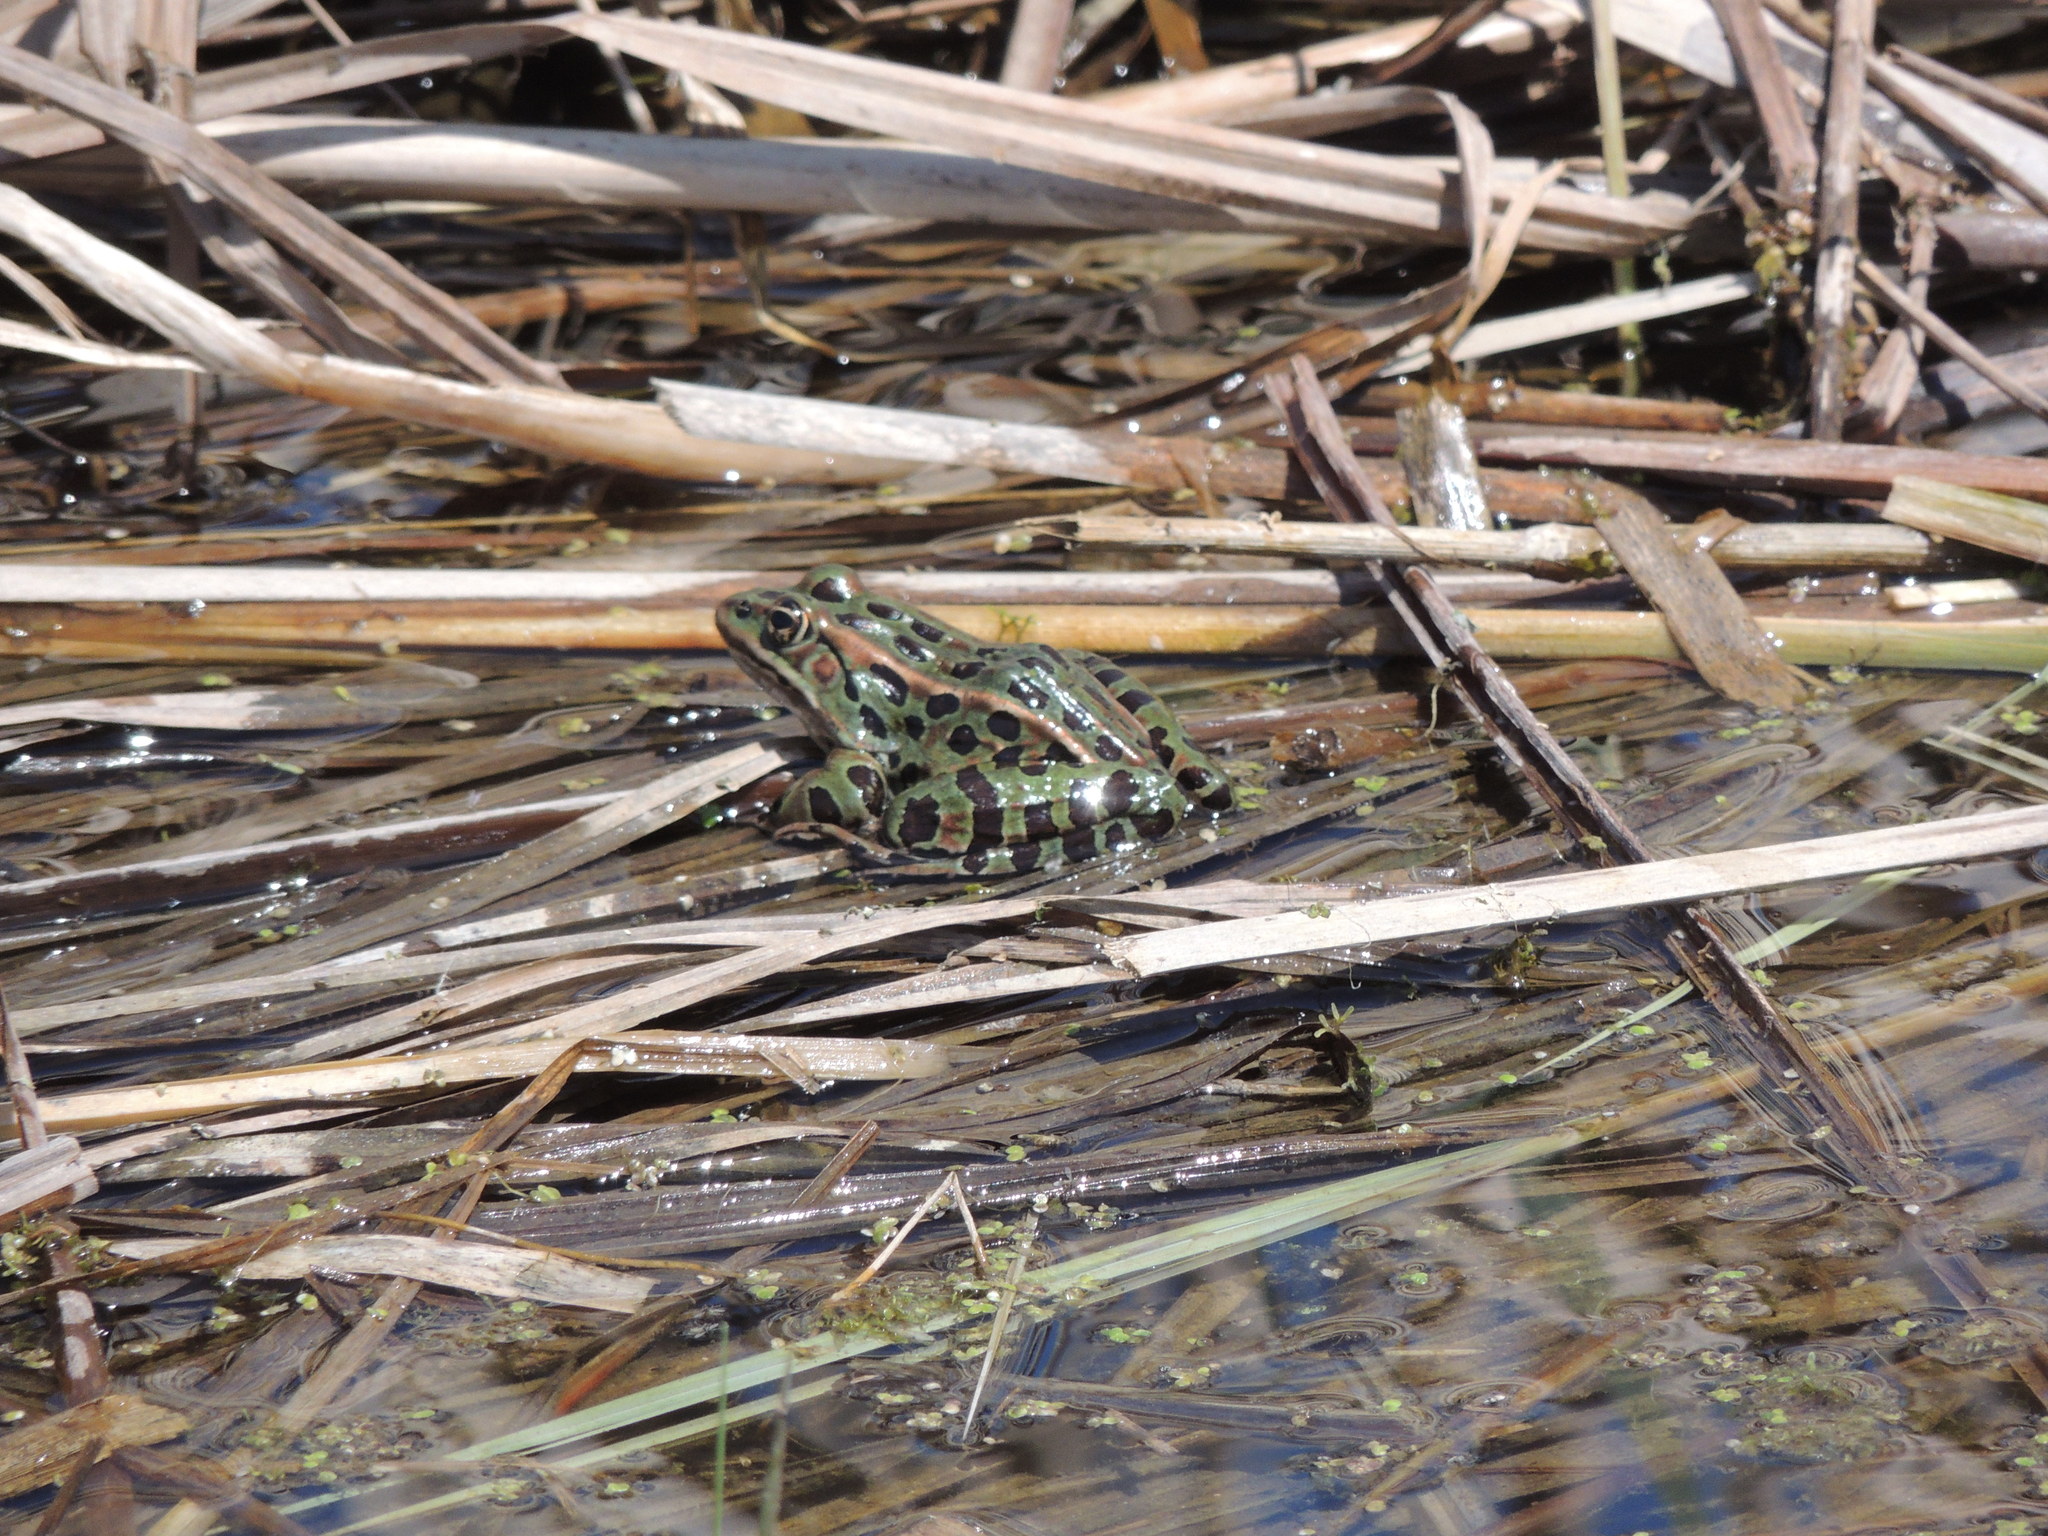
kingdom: Animalia
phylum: Chordata
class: Amphibia
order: Anura
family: Ranidae
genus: Lithobates
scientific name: Lithobates pipiens
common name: Northern leopard frog
